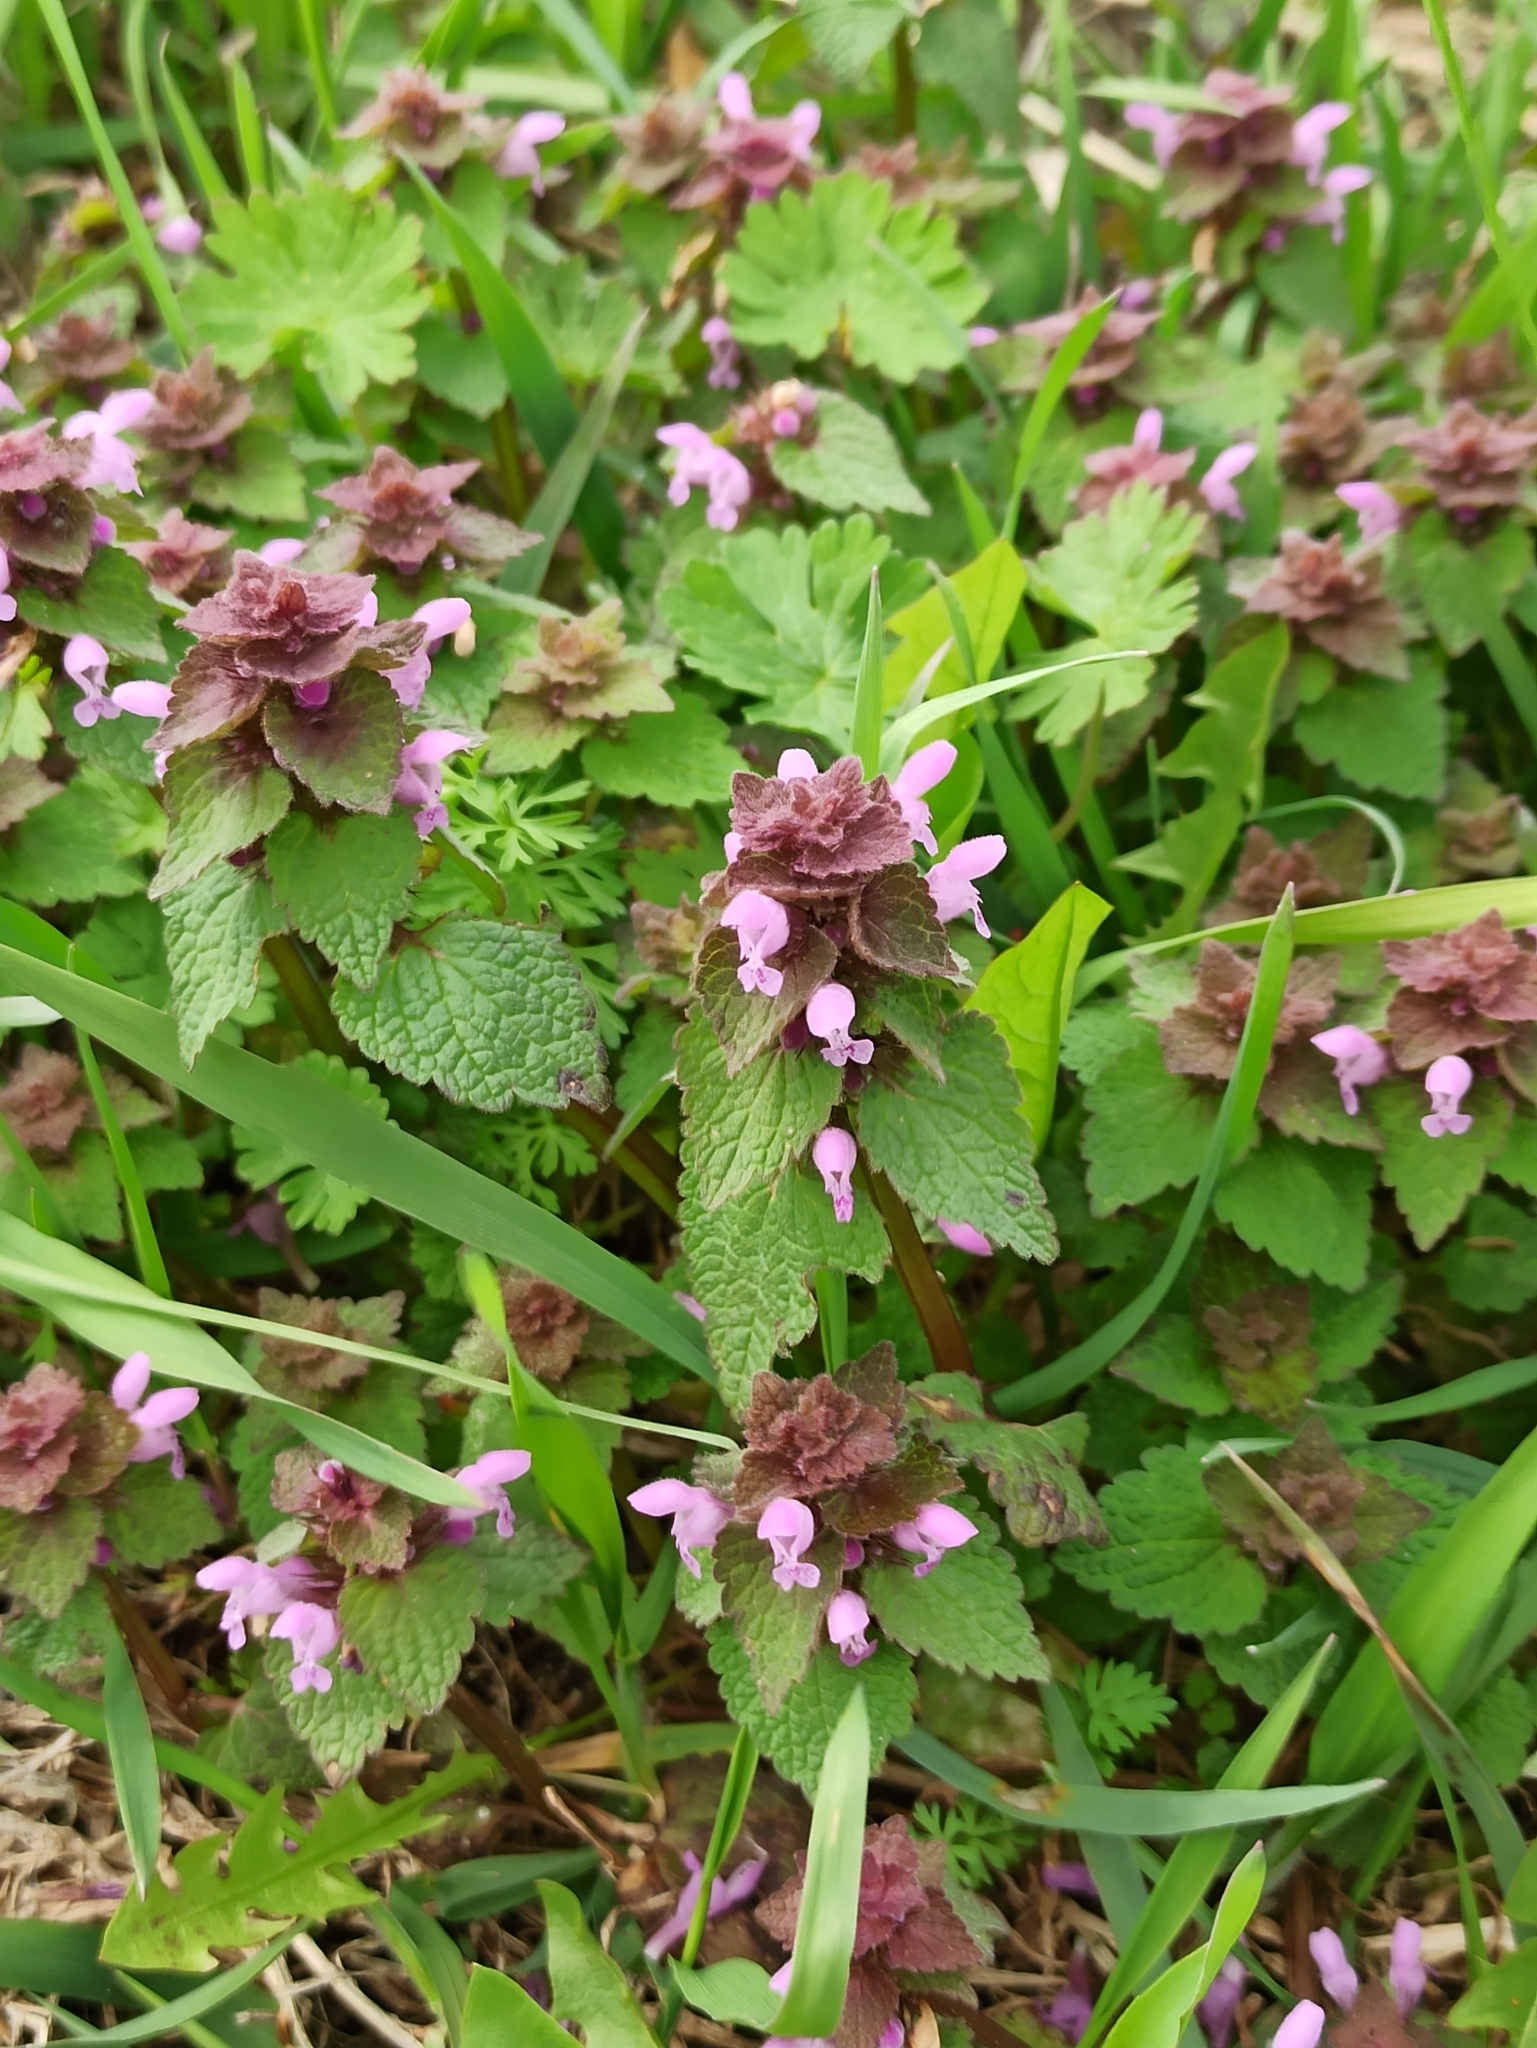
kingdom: Plantae
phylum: Tracheophyta
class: Magnoliopsida
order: Lamiales
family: Lamiaceae
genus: Lamium
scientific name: Lamium purpureum
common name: Red dead-nettle
